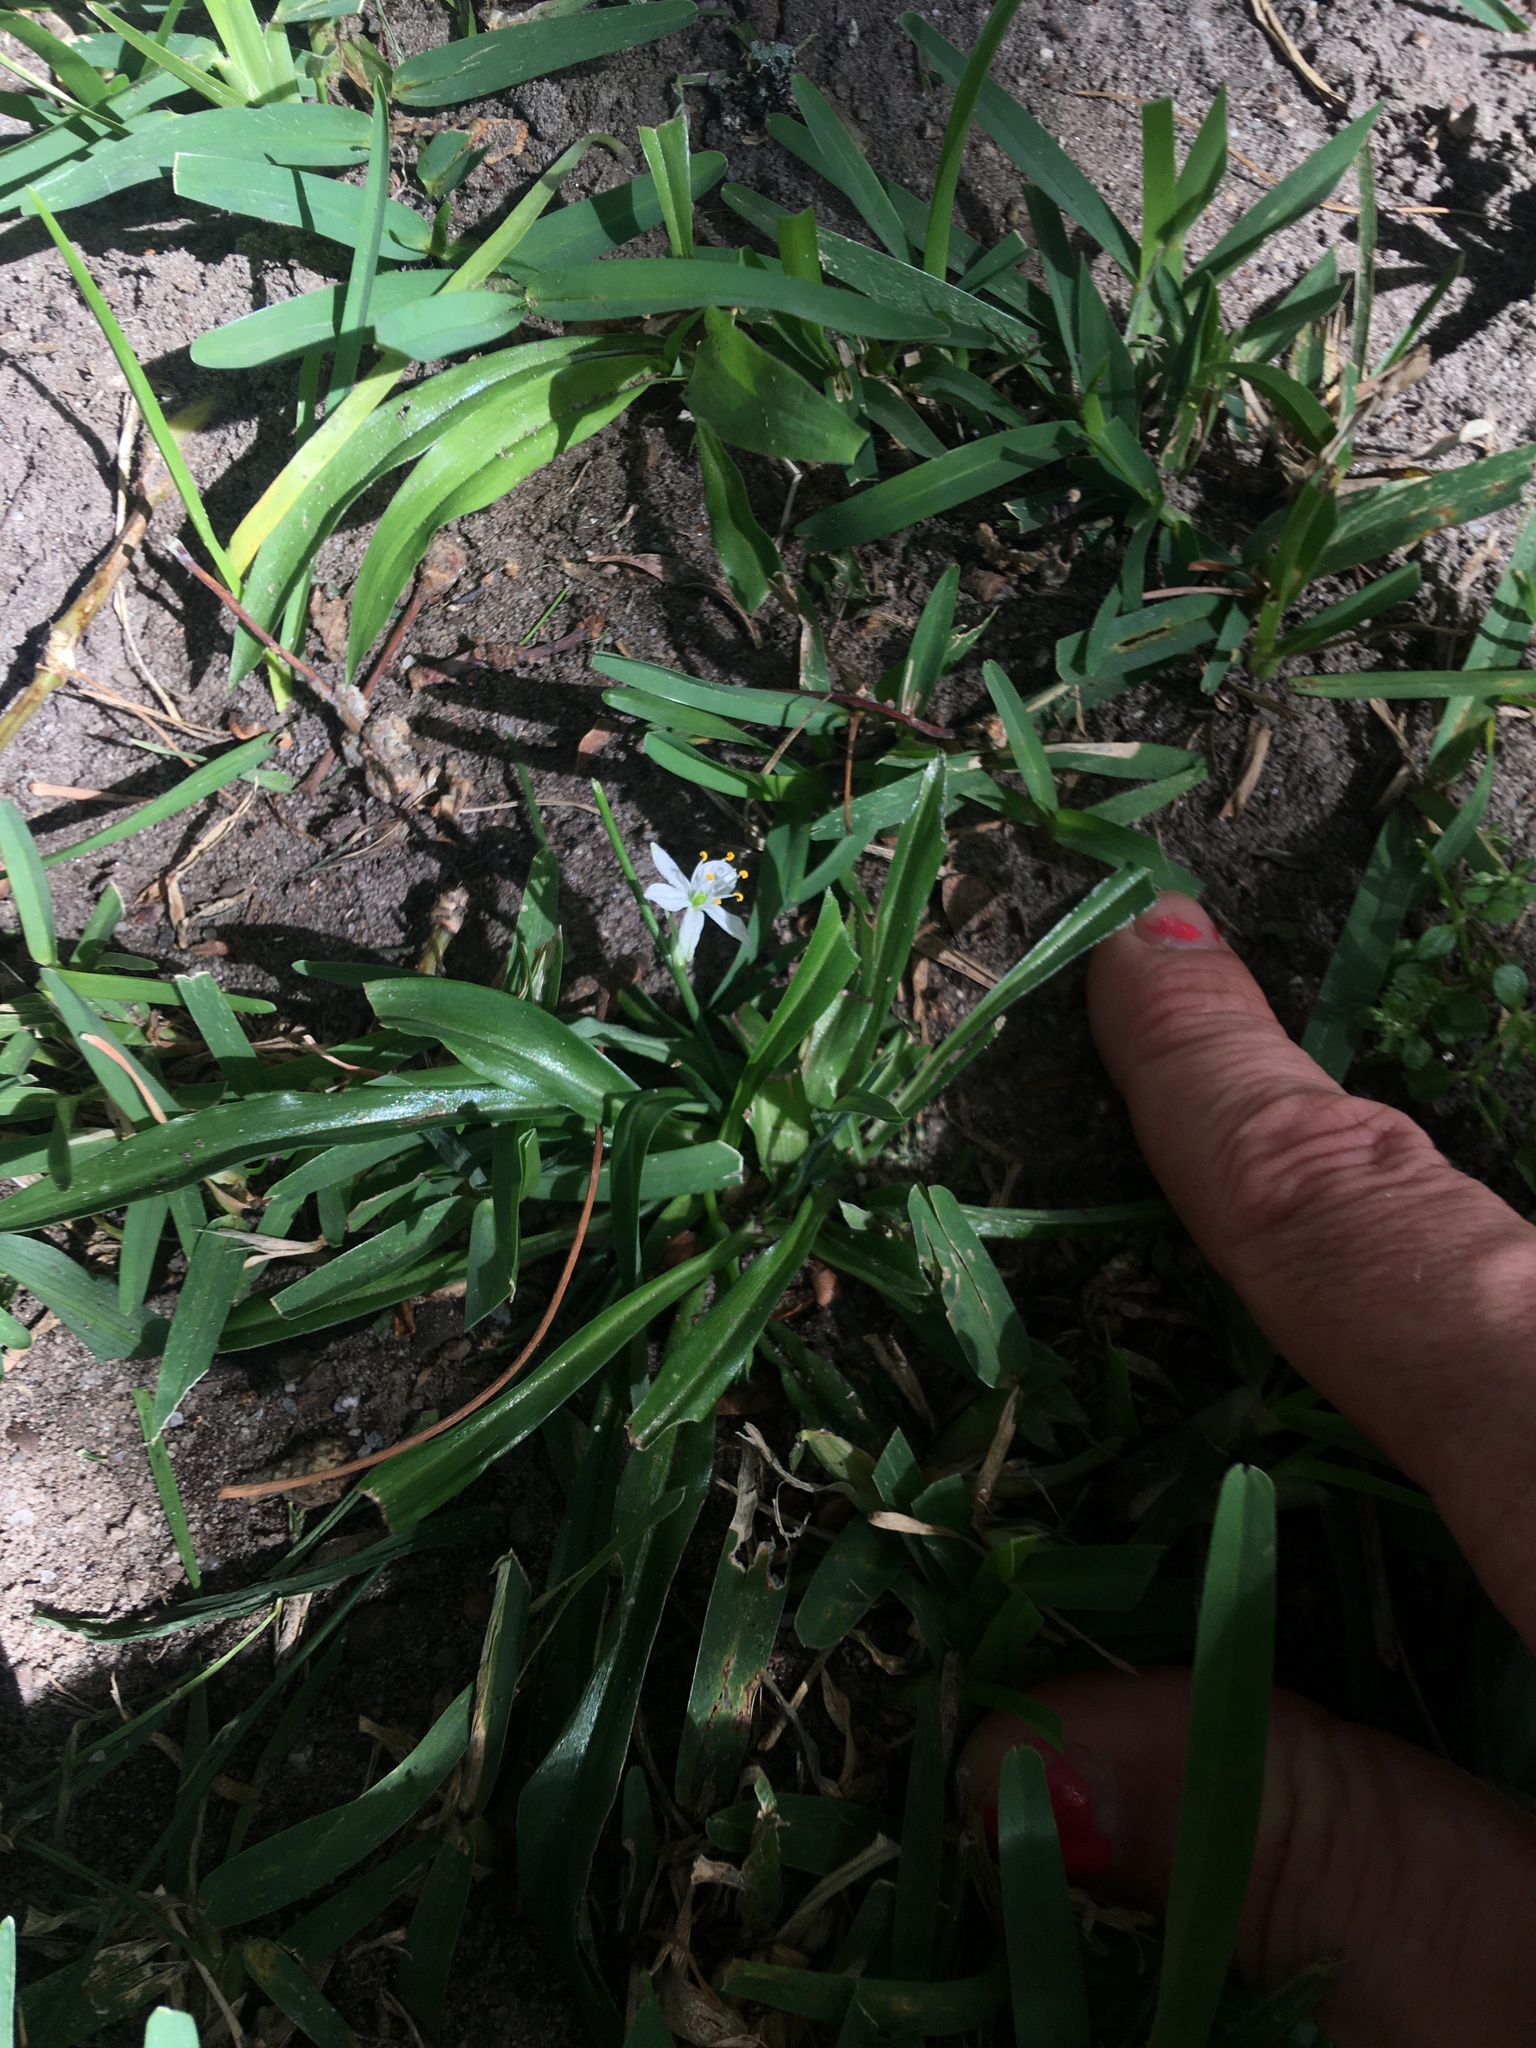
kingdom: Plantae
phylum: Tracheophyta
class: Liliopsida
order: Asparagales
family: Asparagaceae
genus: Chlorophytum
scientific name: Chlorophytum
